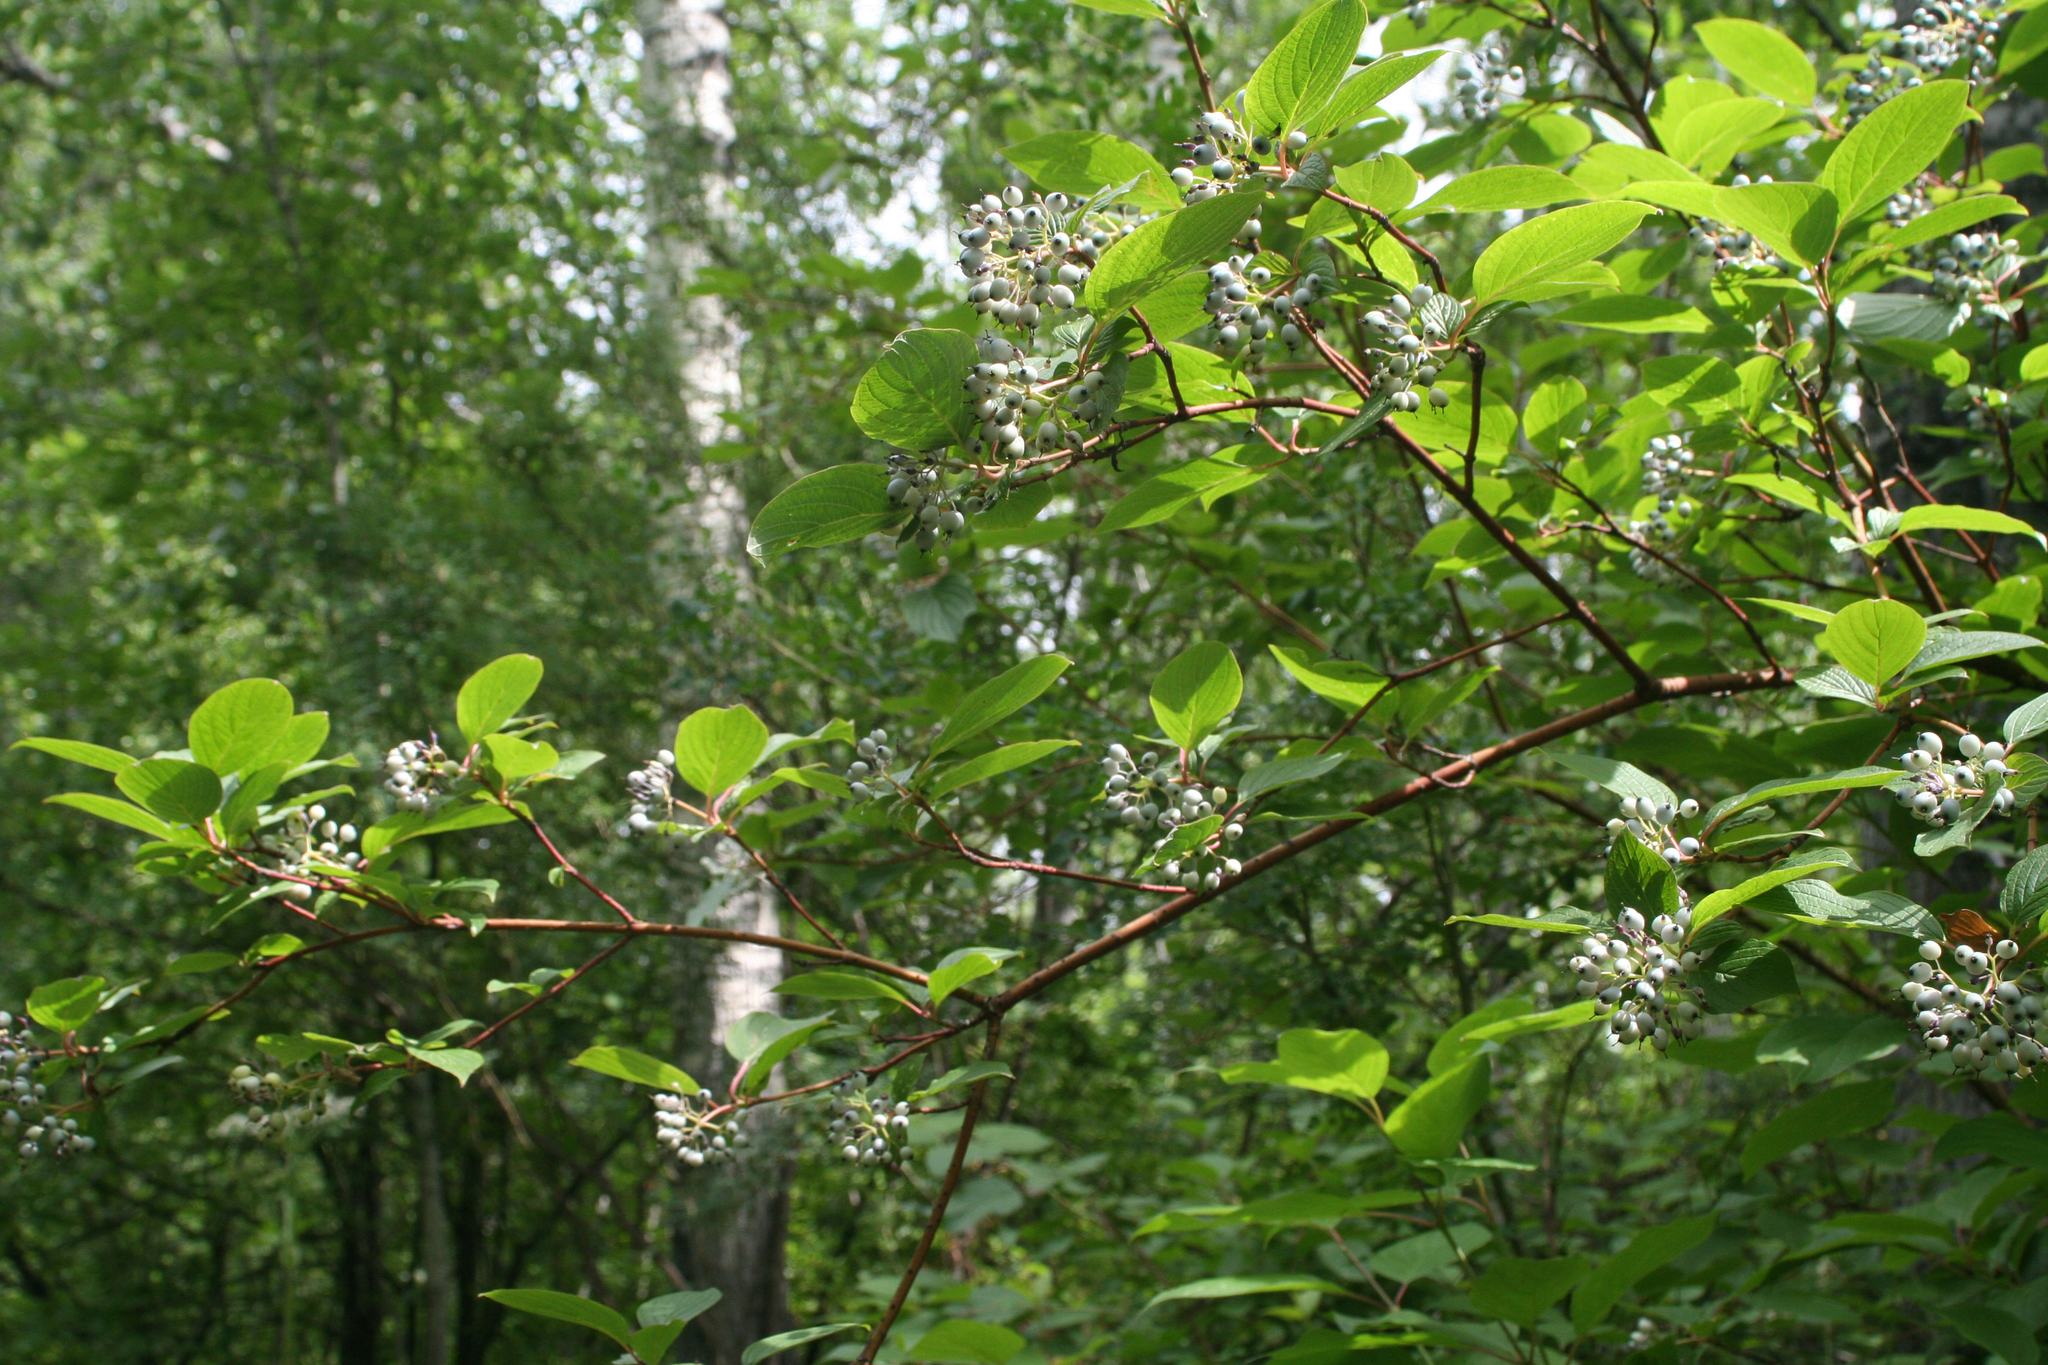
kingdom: Plantae
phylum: Tracheophyta
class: Magnoliopsida
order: Cornales
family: Cornaceae
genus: Cornus
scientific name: Cornus alba
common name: White dogwood
